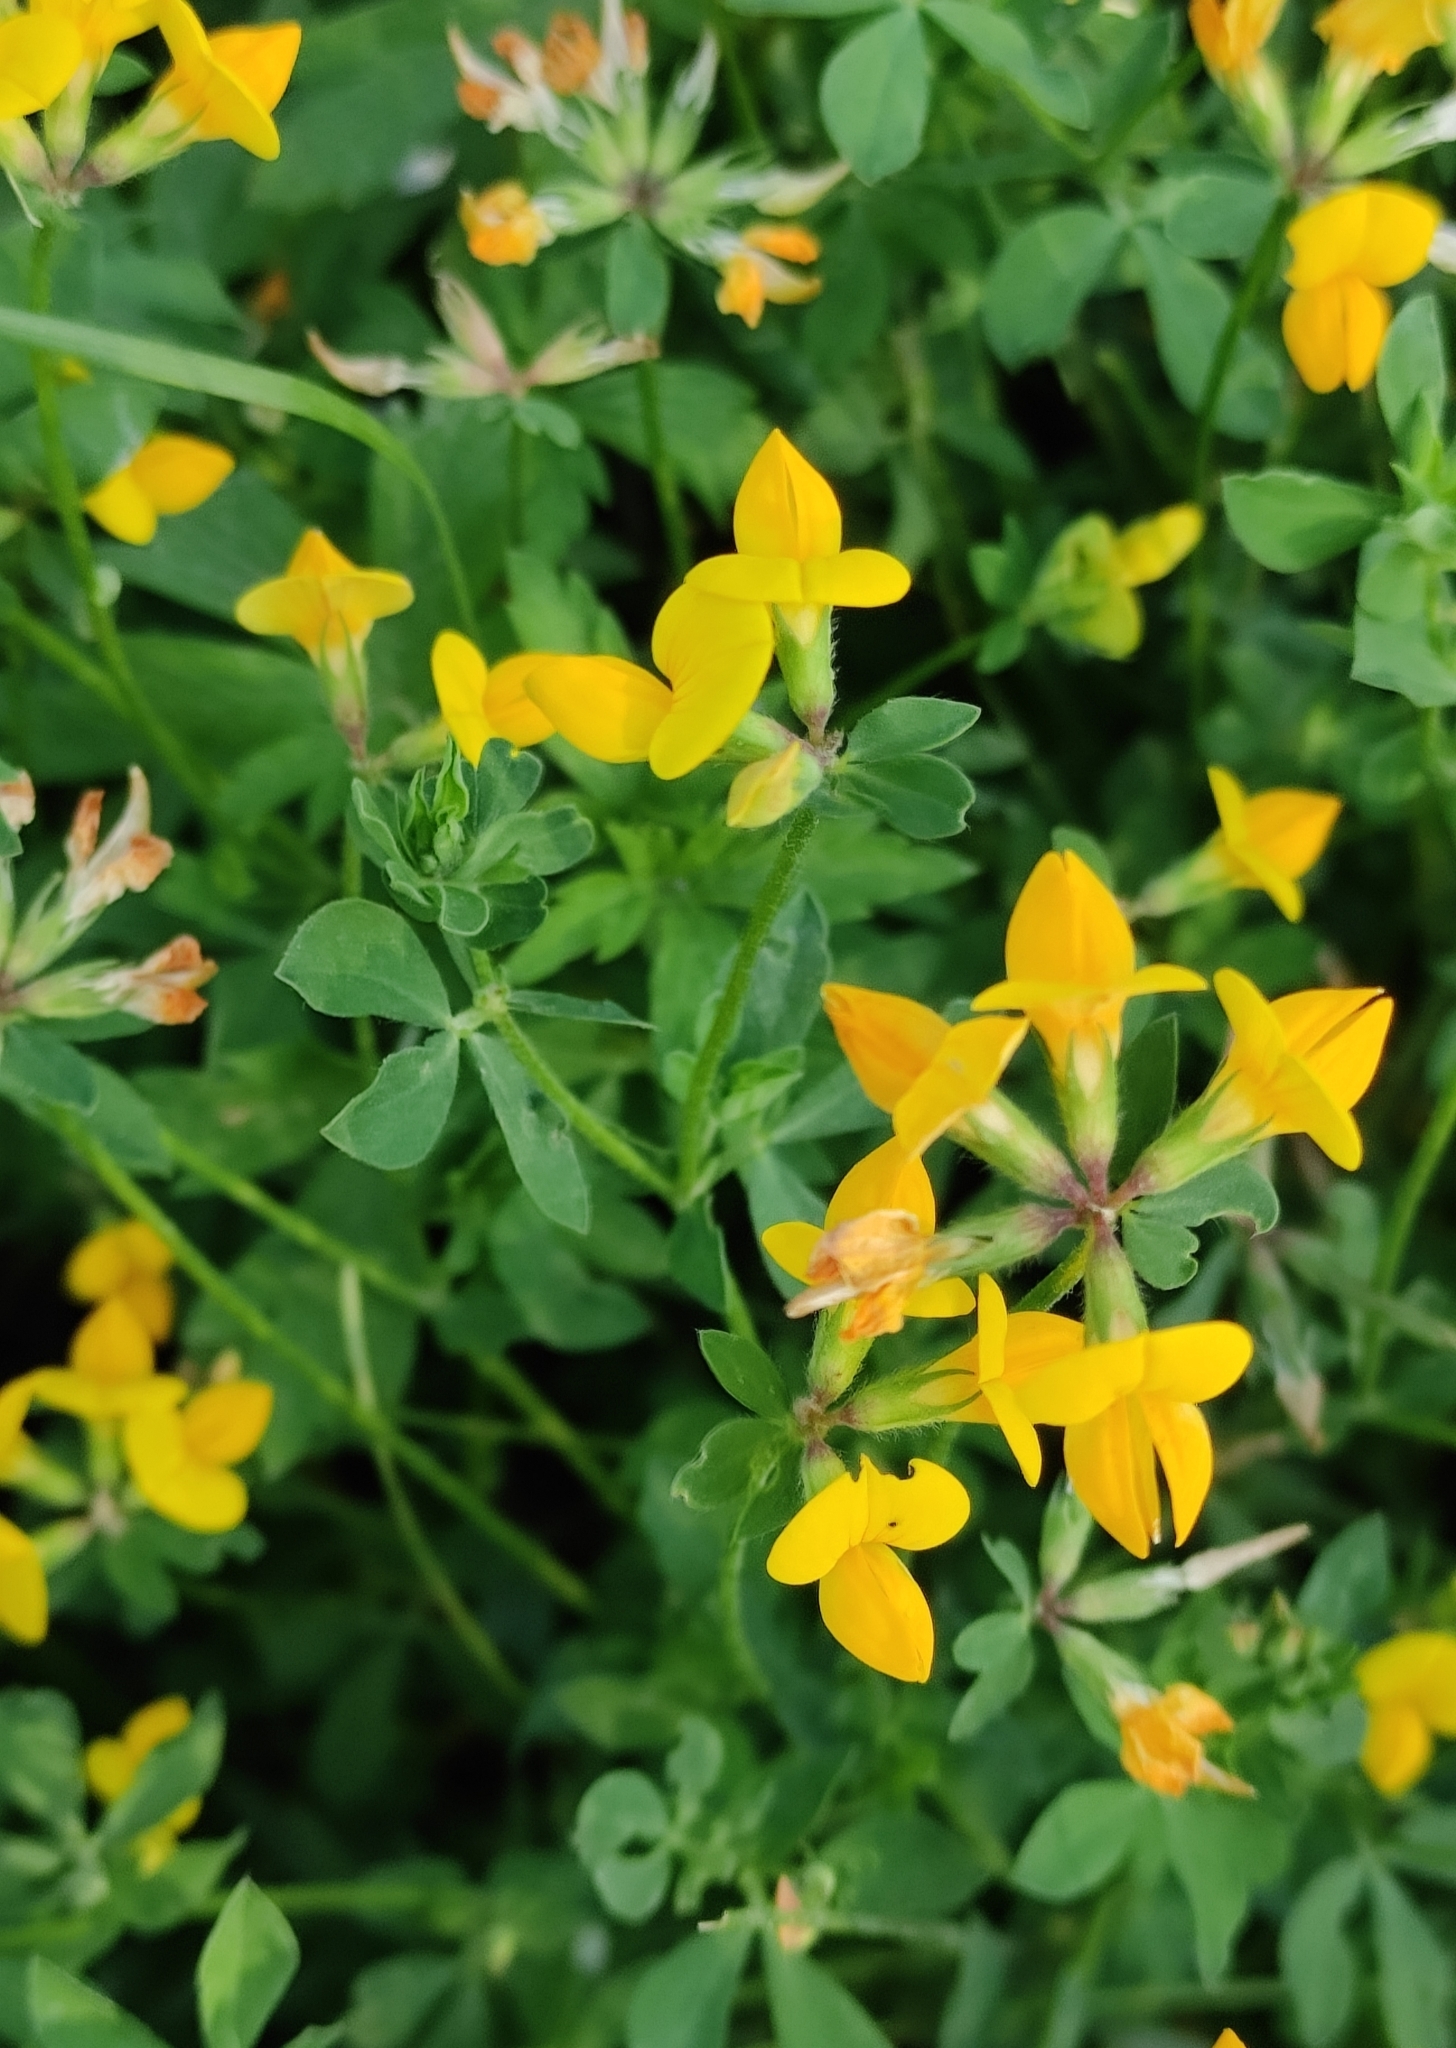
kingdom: Plantae
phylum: Tracheophyta
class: Magnoliopsida
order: Fabales
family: Fabaceae
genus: Lotus
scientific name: Lotus corniculatus
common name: Common bird's-foot-trefoil
